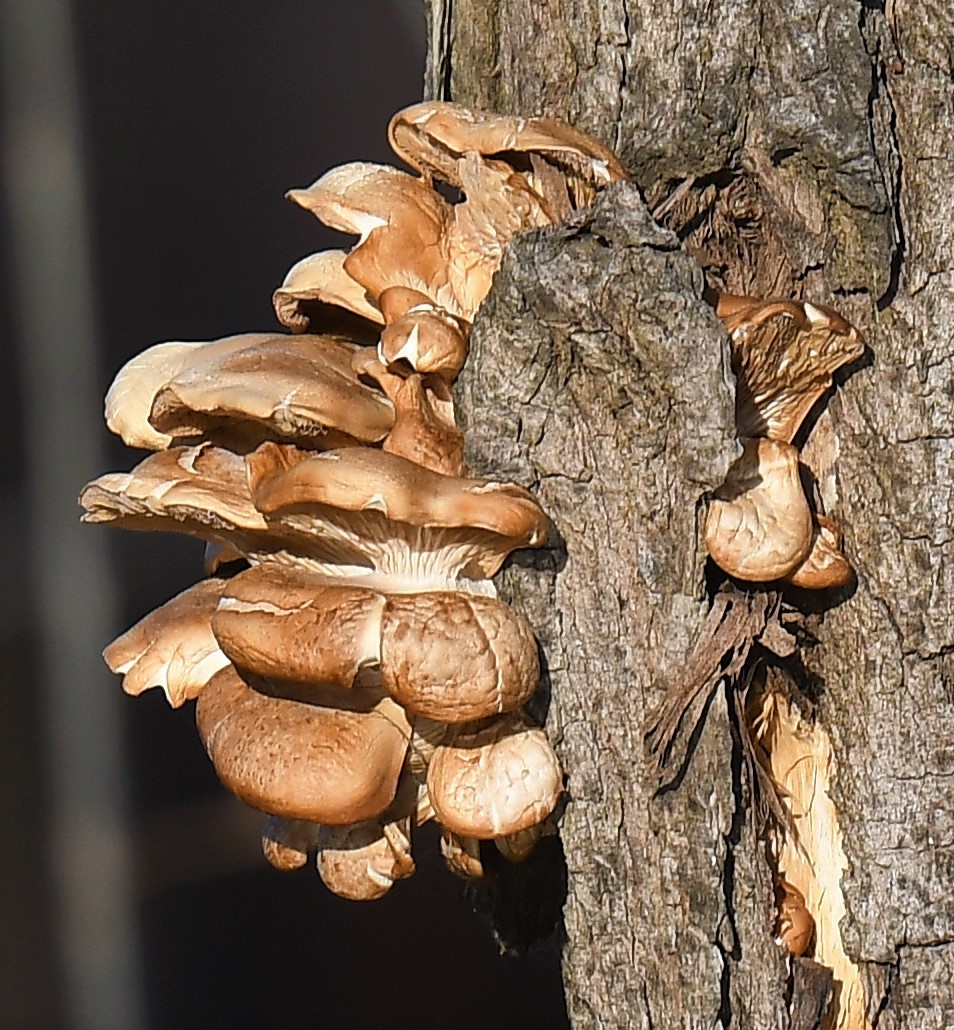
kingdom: Fungi
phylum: Basidiomycota
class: Agaricomycetes
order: Agaricales
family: Pleurotaceae
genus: Pleurotus
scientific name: Pleurotus ostreatus
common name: Oyster mushroom
